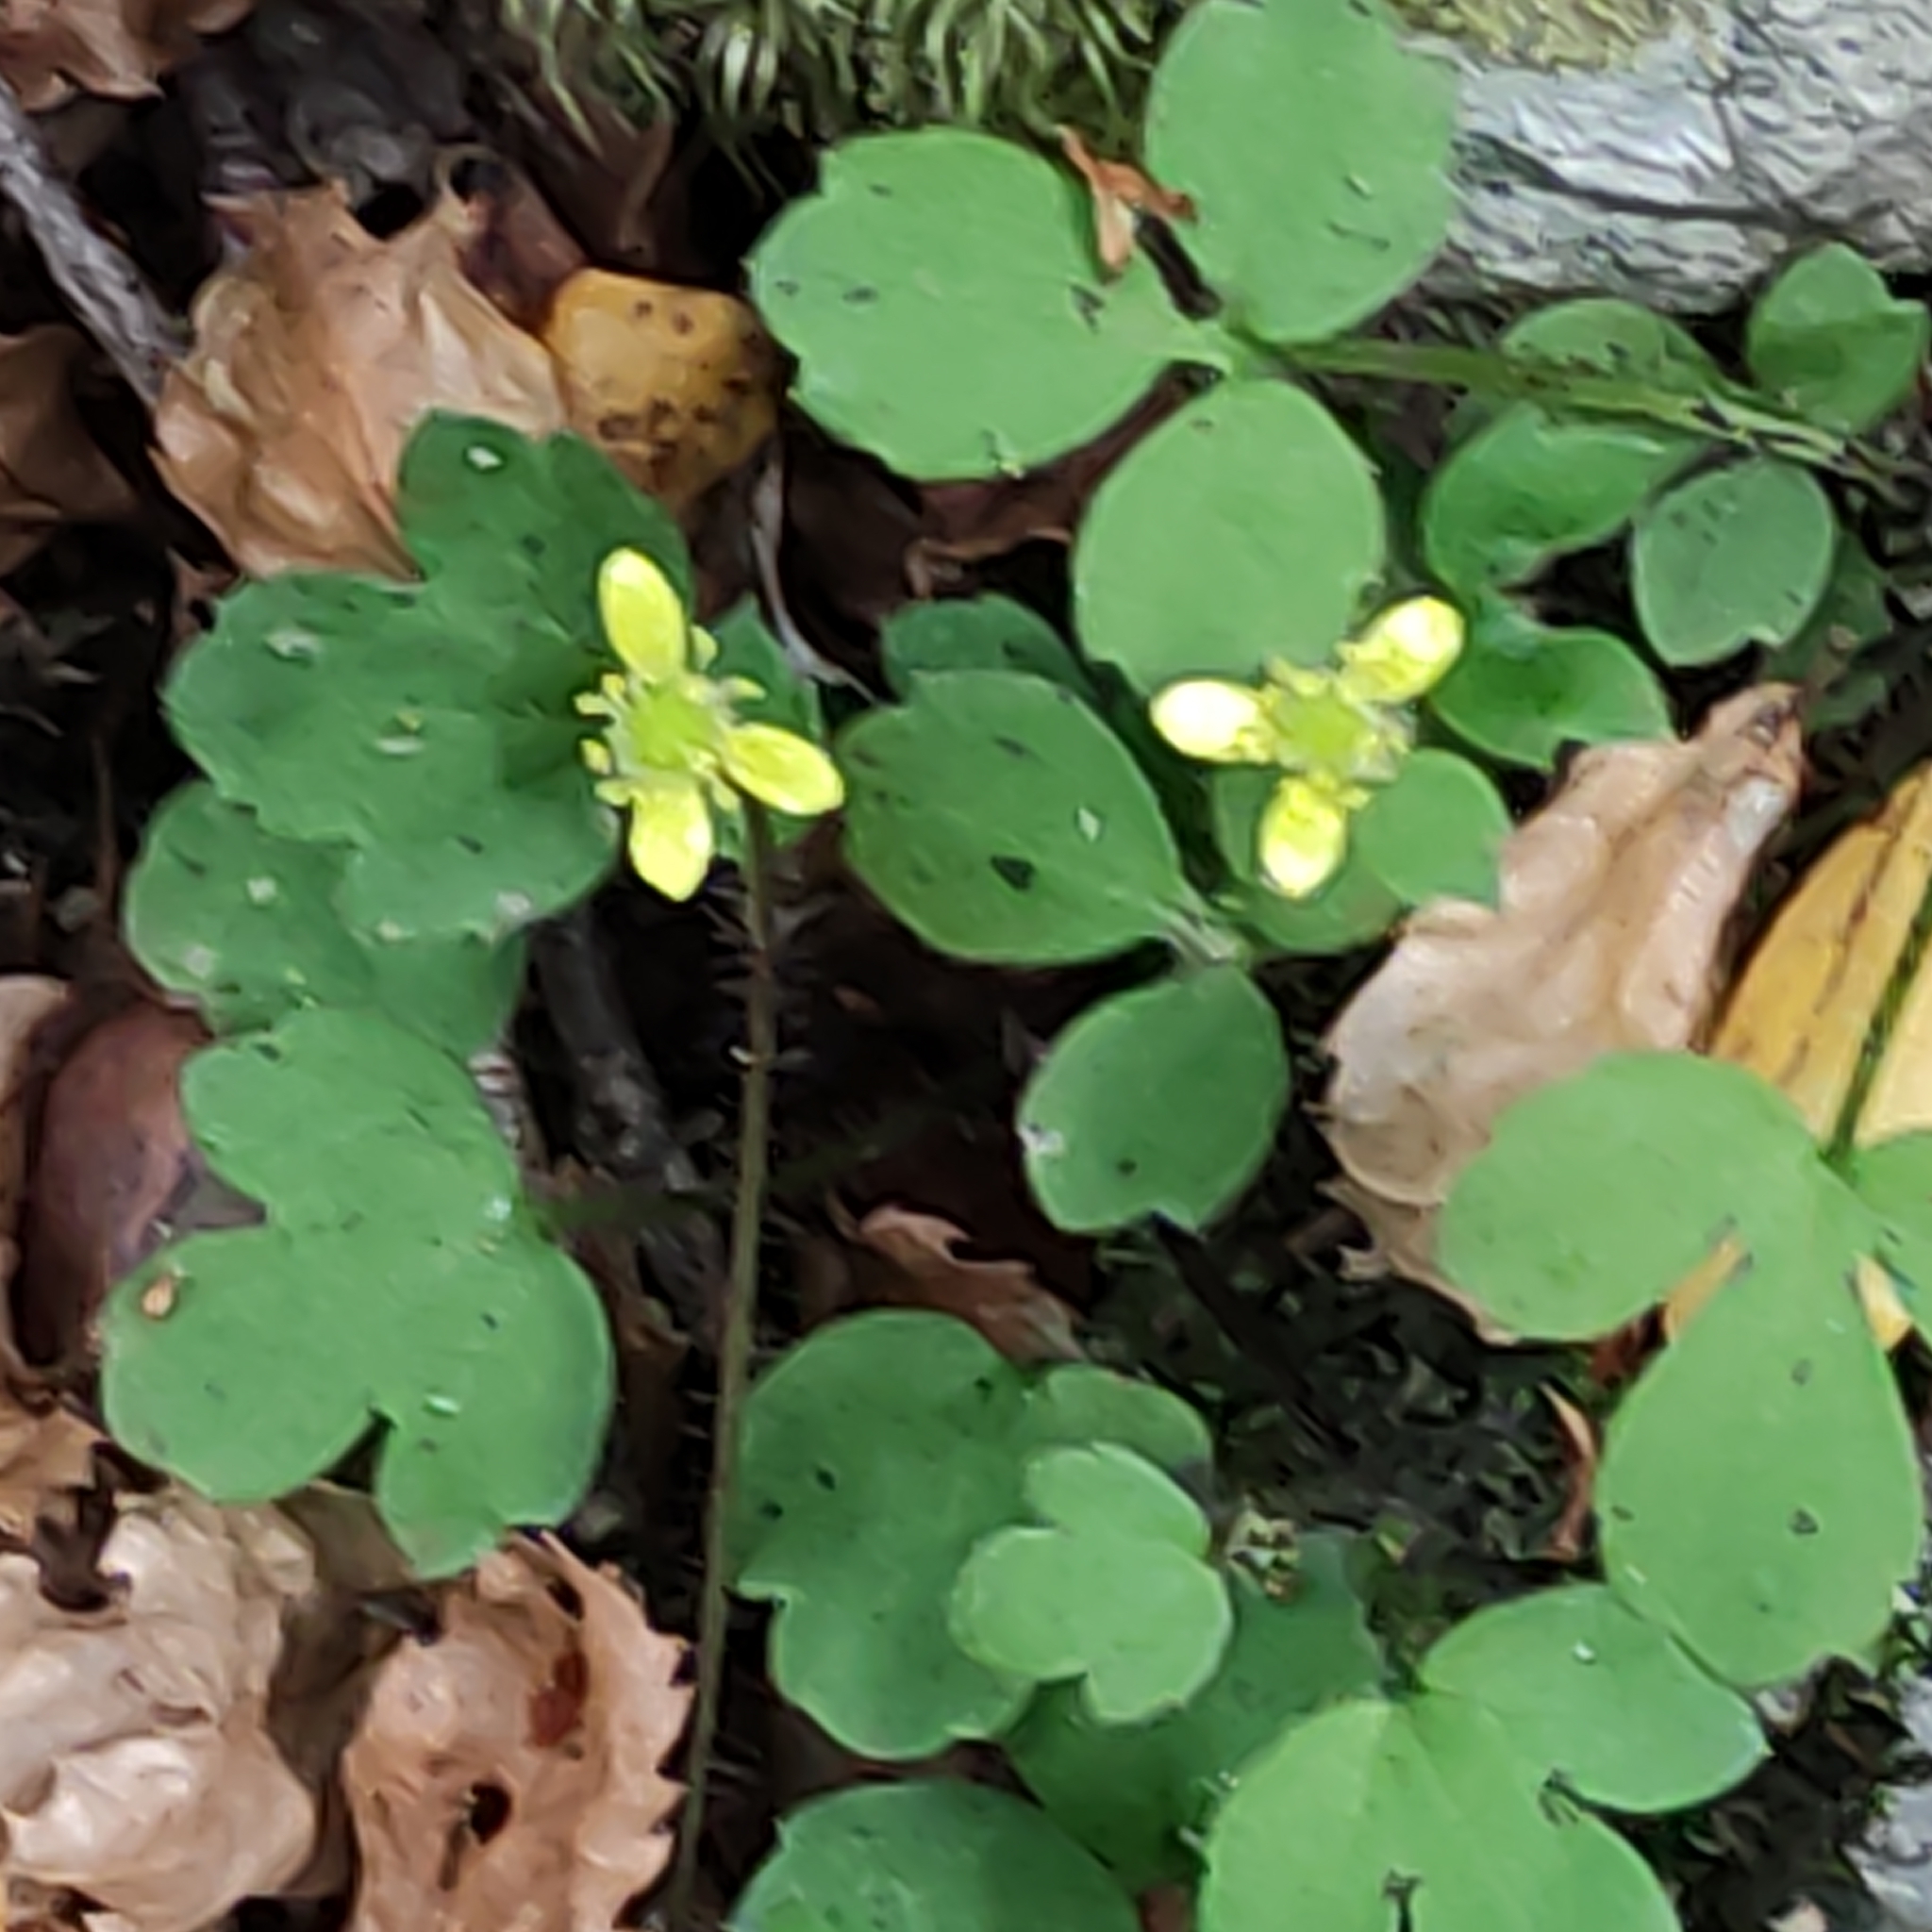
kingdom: Plantae
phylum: Tracheophyta
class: Magnoliopsida
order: Ranunculales
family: Ranunculaceae
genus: Ranunculus
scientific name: Ranunculus reflexus
